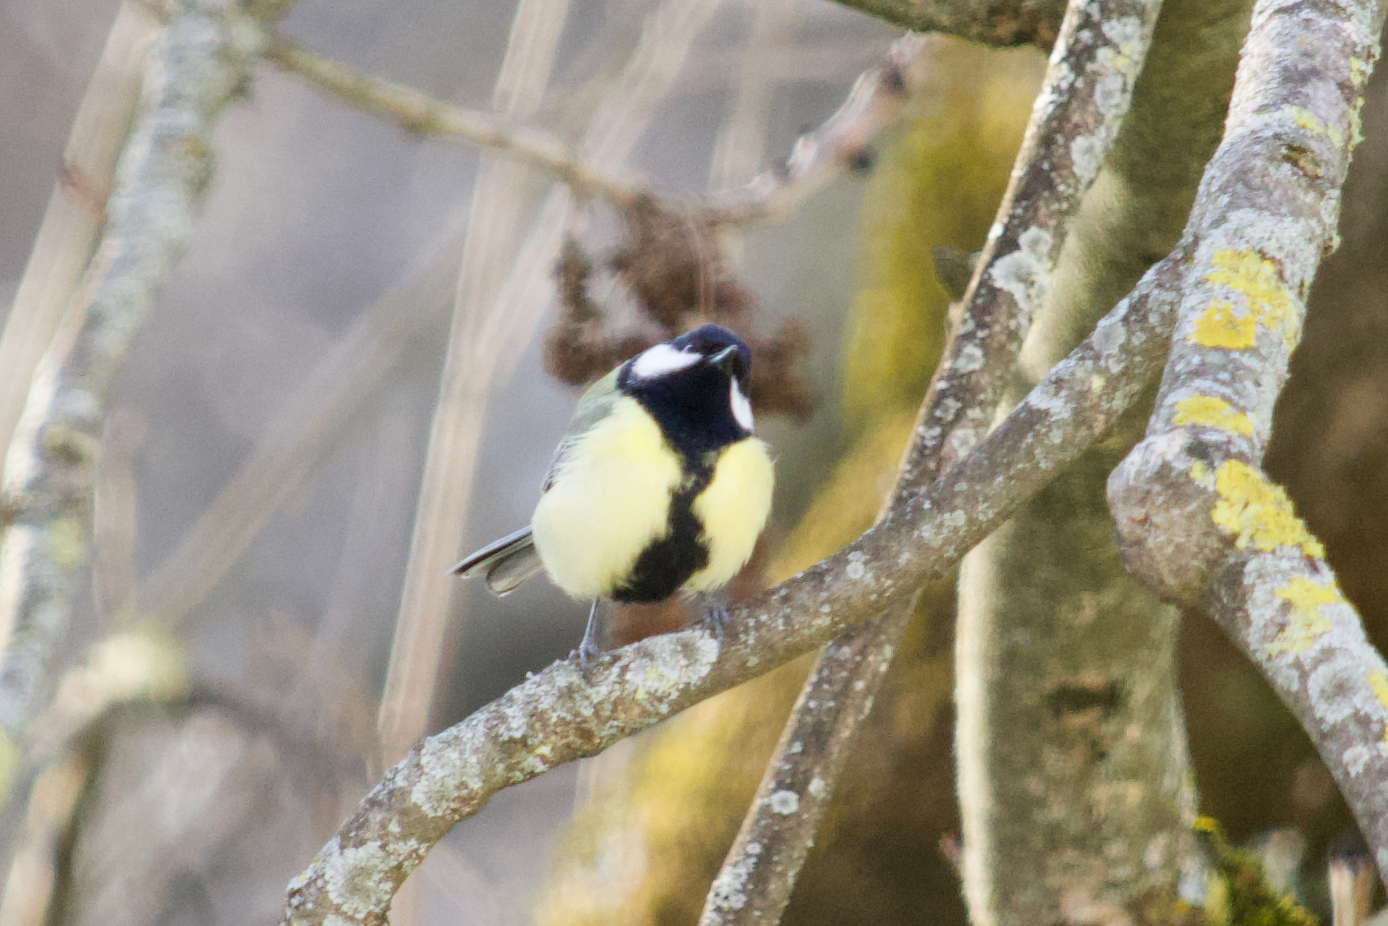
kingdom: Animalia
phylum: Chordata
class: Aves
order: Passeriformes
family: Paridae
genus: Parus
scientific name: Parus major
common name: Great tit
